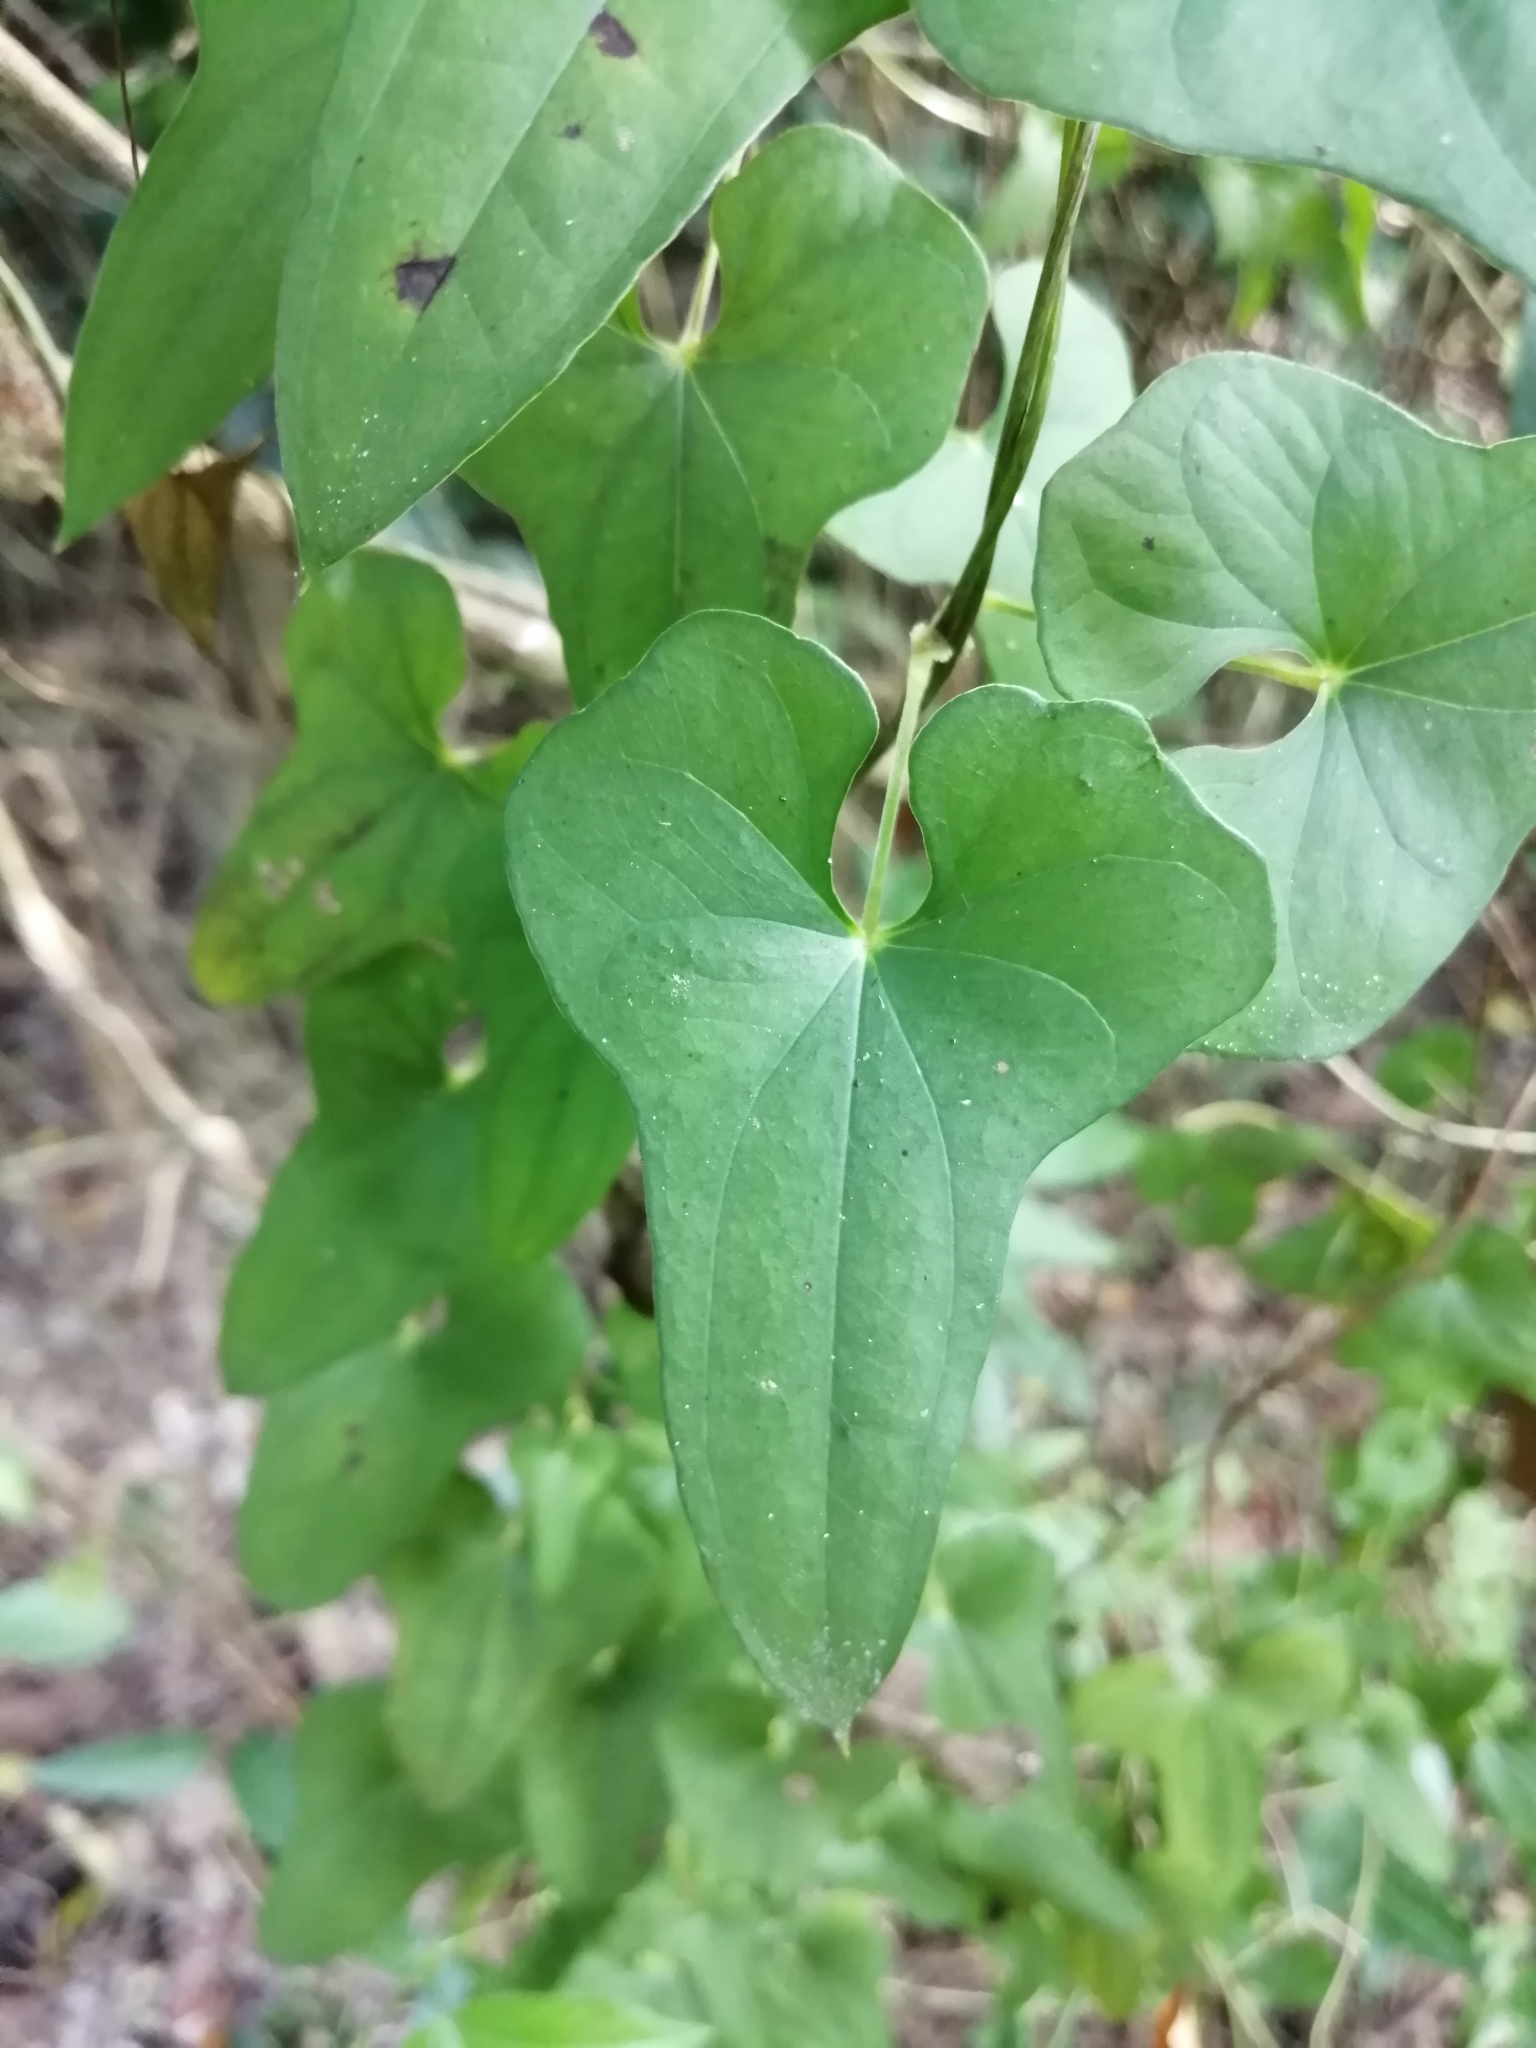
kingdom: Plantae
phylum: Tracheophyta
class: Liliopsida
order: Dioscoreales
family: Dioscoreaceae
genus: Dioscorea
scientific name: Dioscorea polystachya
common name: Chinese yam
